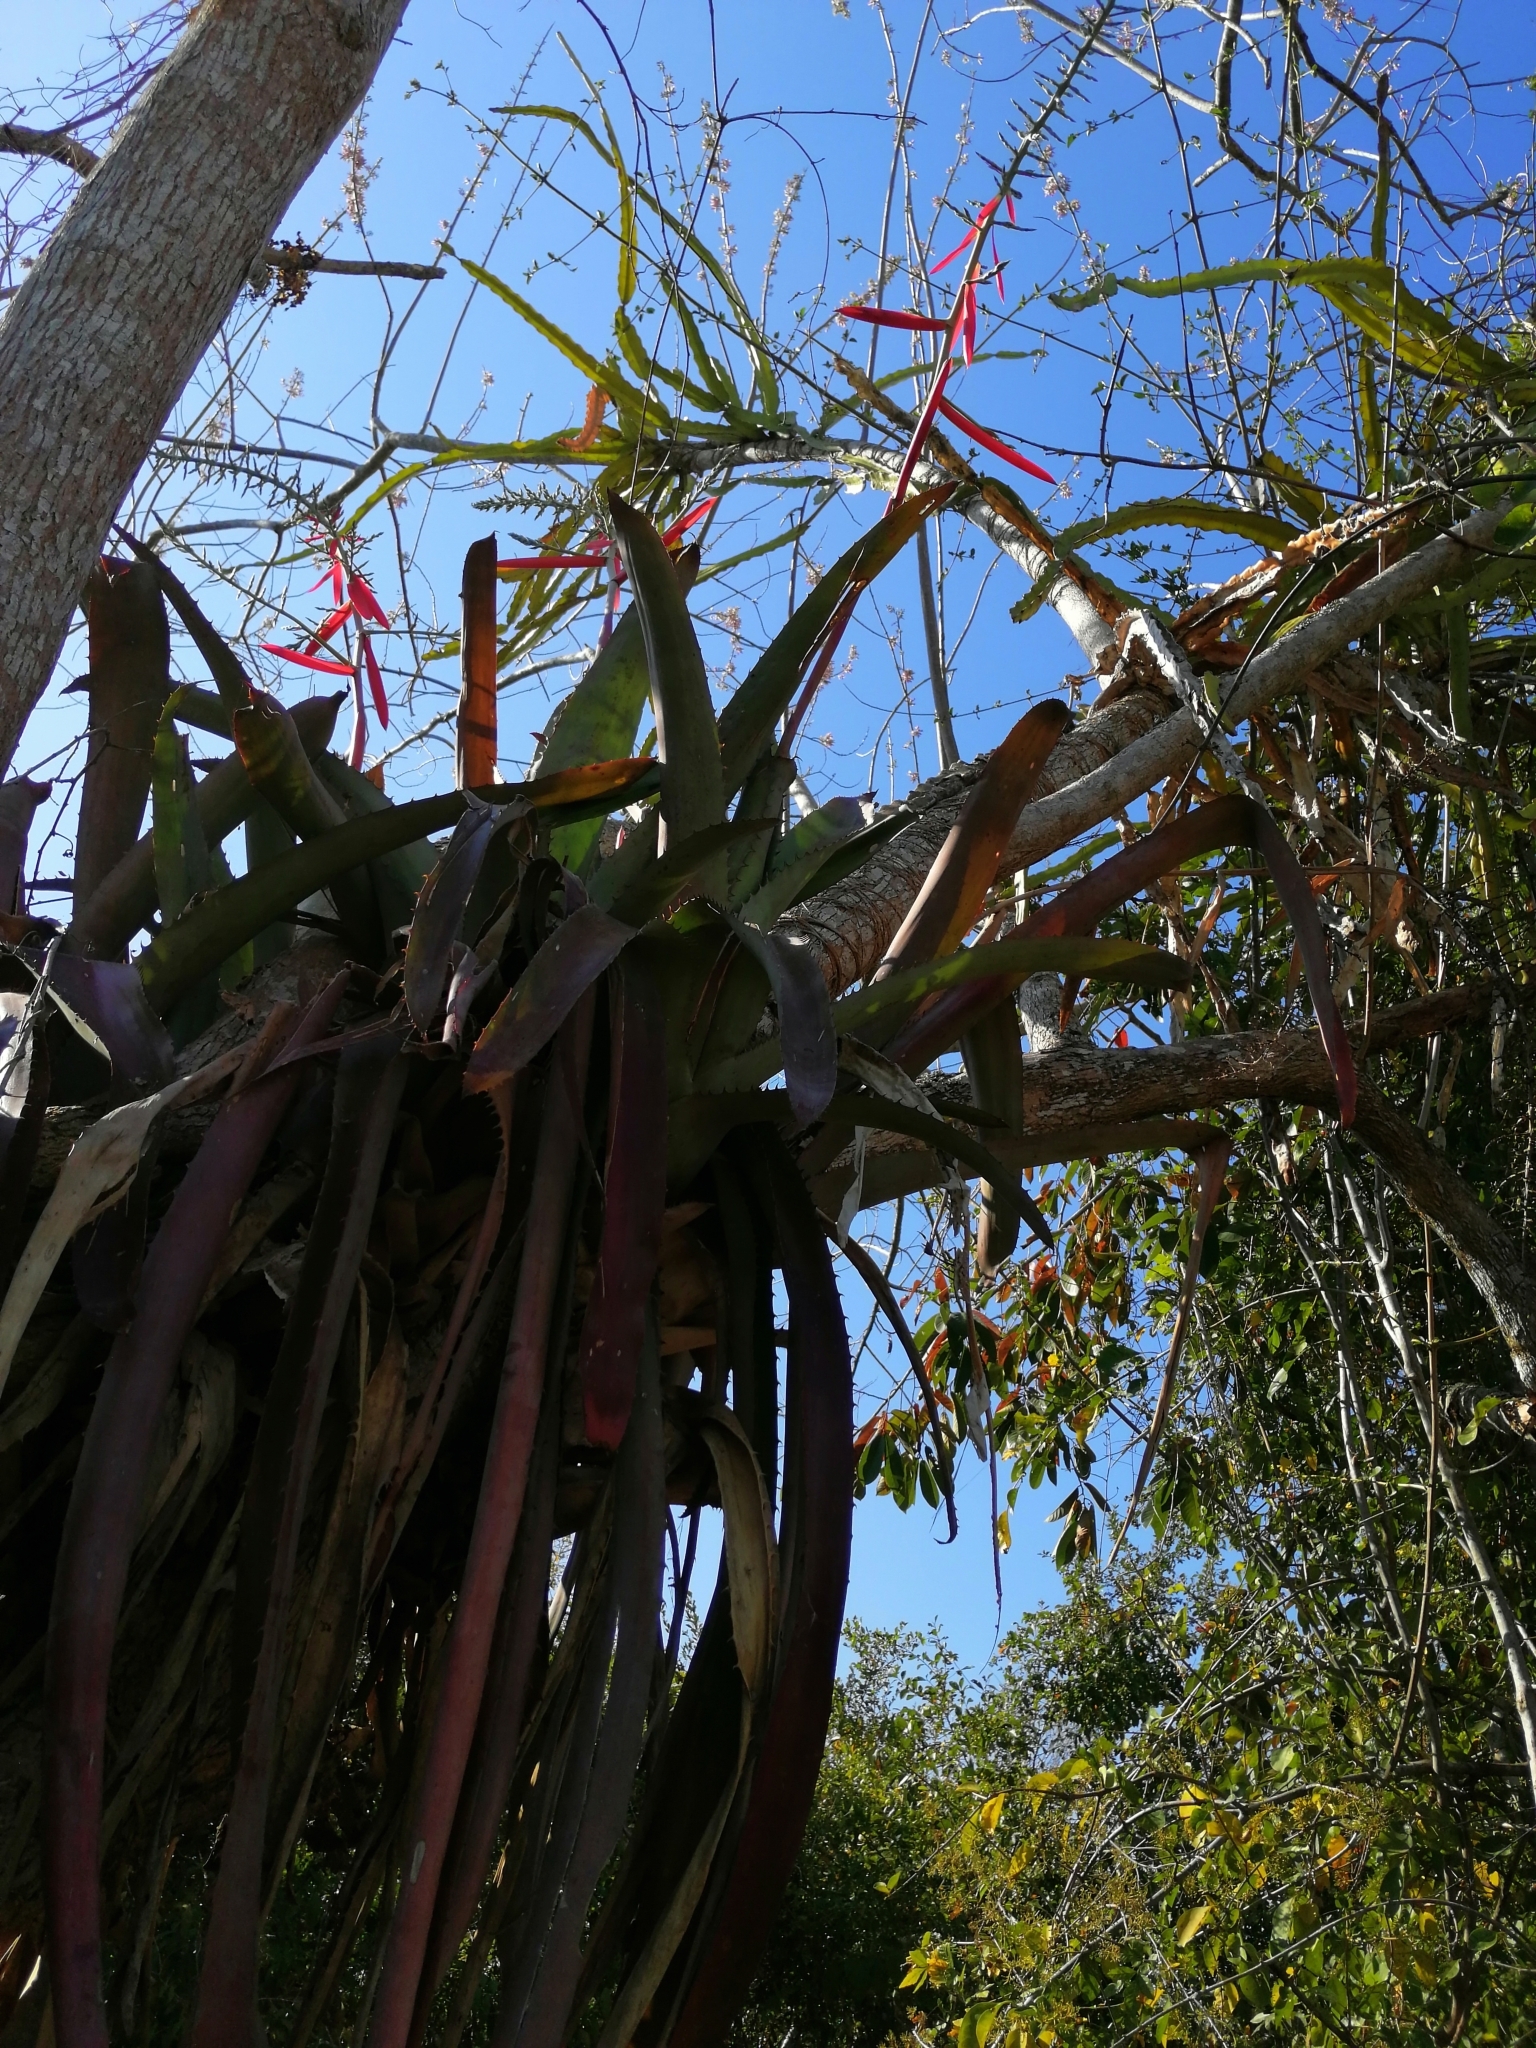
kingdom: Plantae
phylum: Tracheophyta
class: Liliopsida
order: Poales
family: Bromeliaceae
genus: Aechmea
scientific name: Aechmea bracteata
